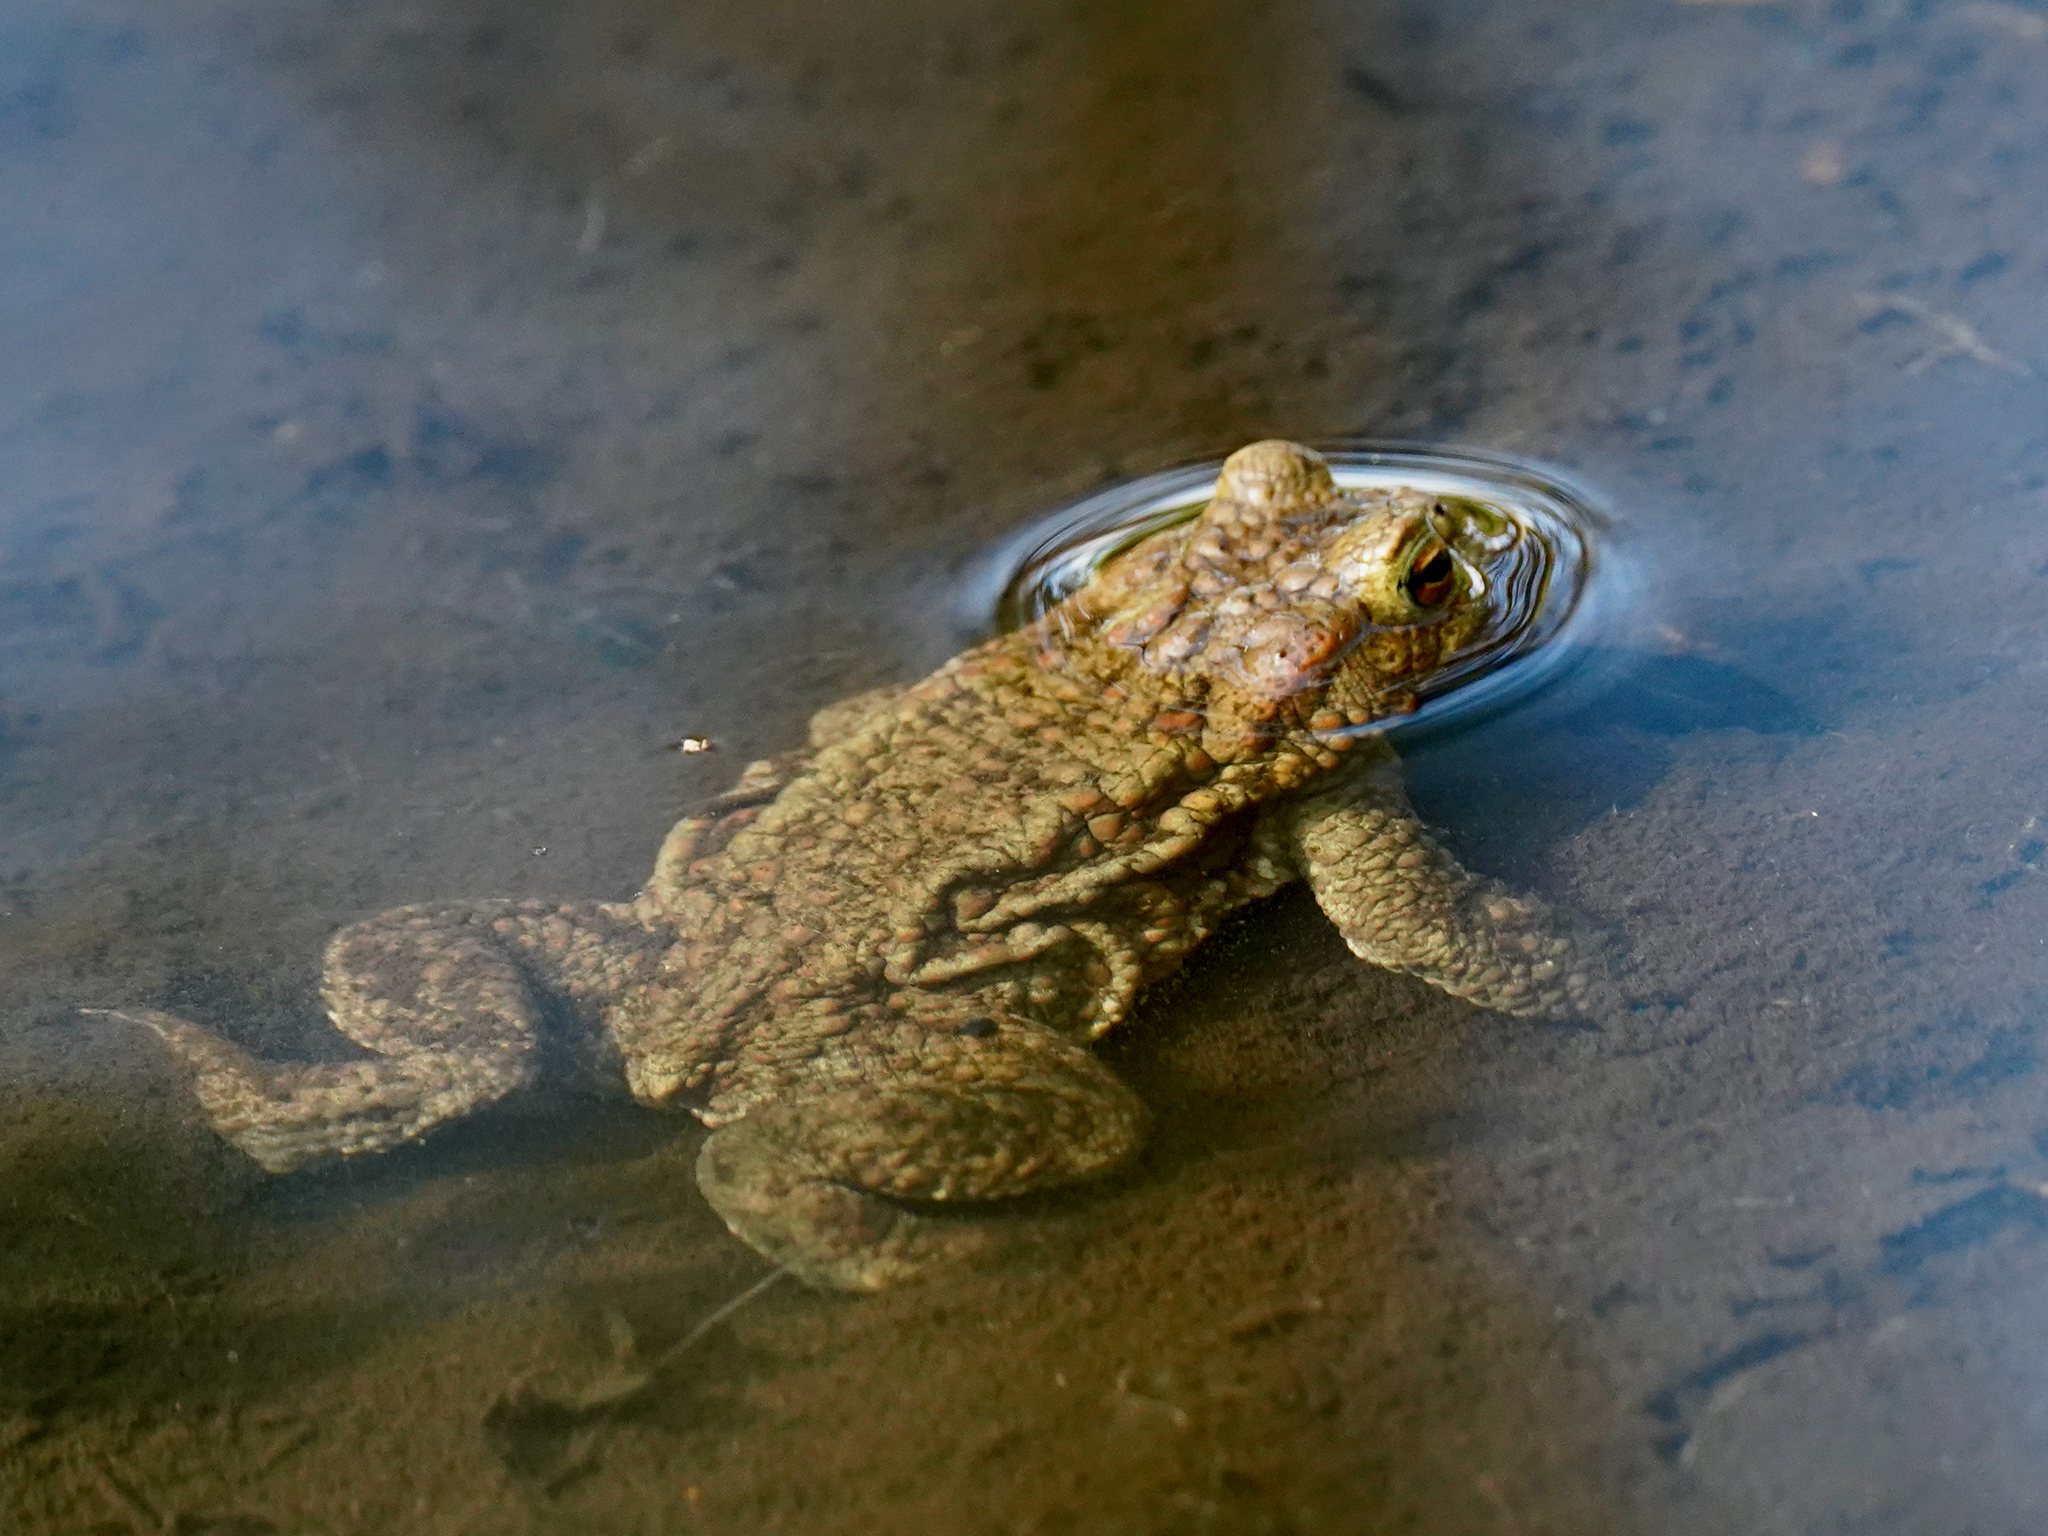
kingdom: Animalia
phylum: Chordata
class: Amphibia
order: Anura
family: Bufonidae
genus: Bufo
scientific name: Bufo bufo
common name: Common toad
